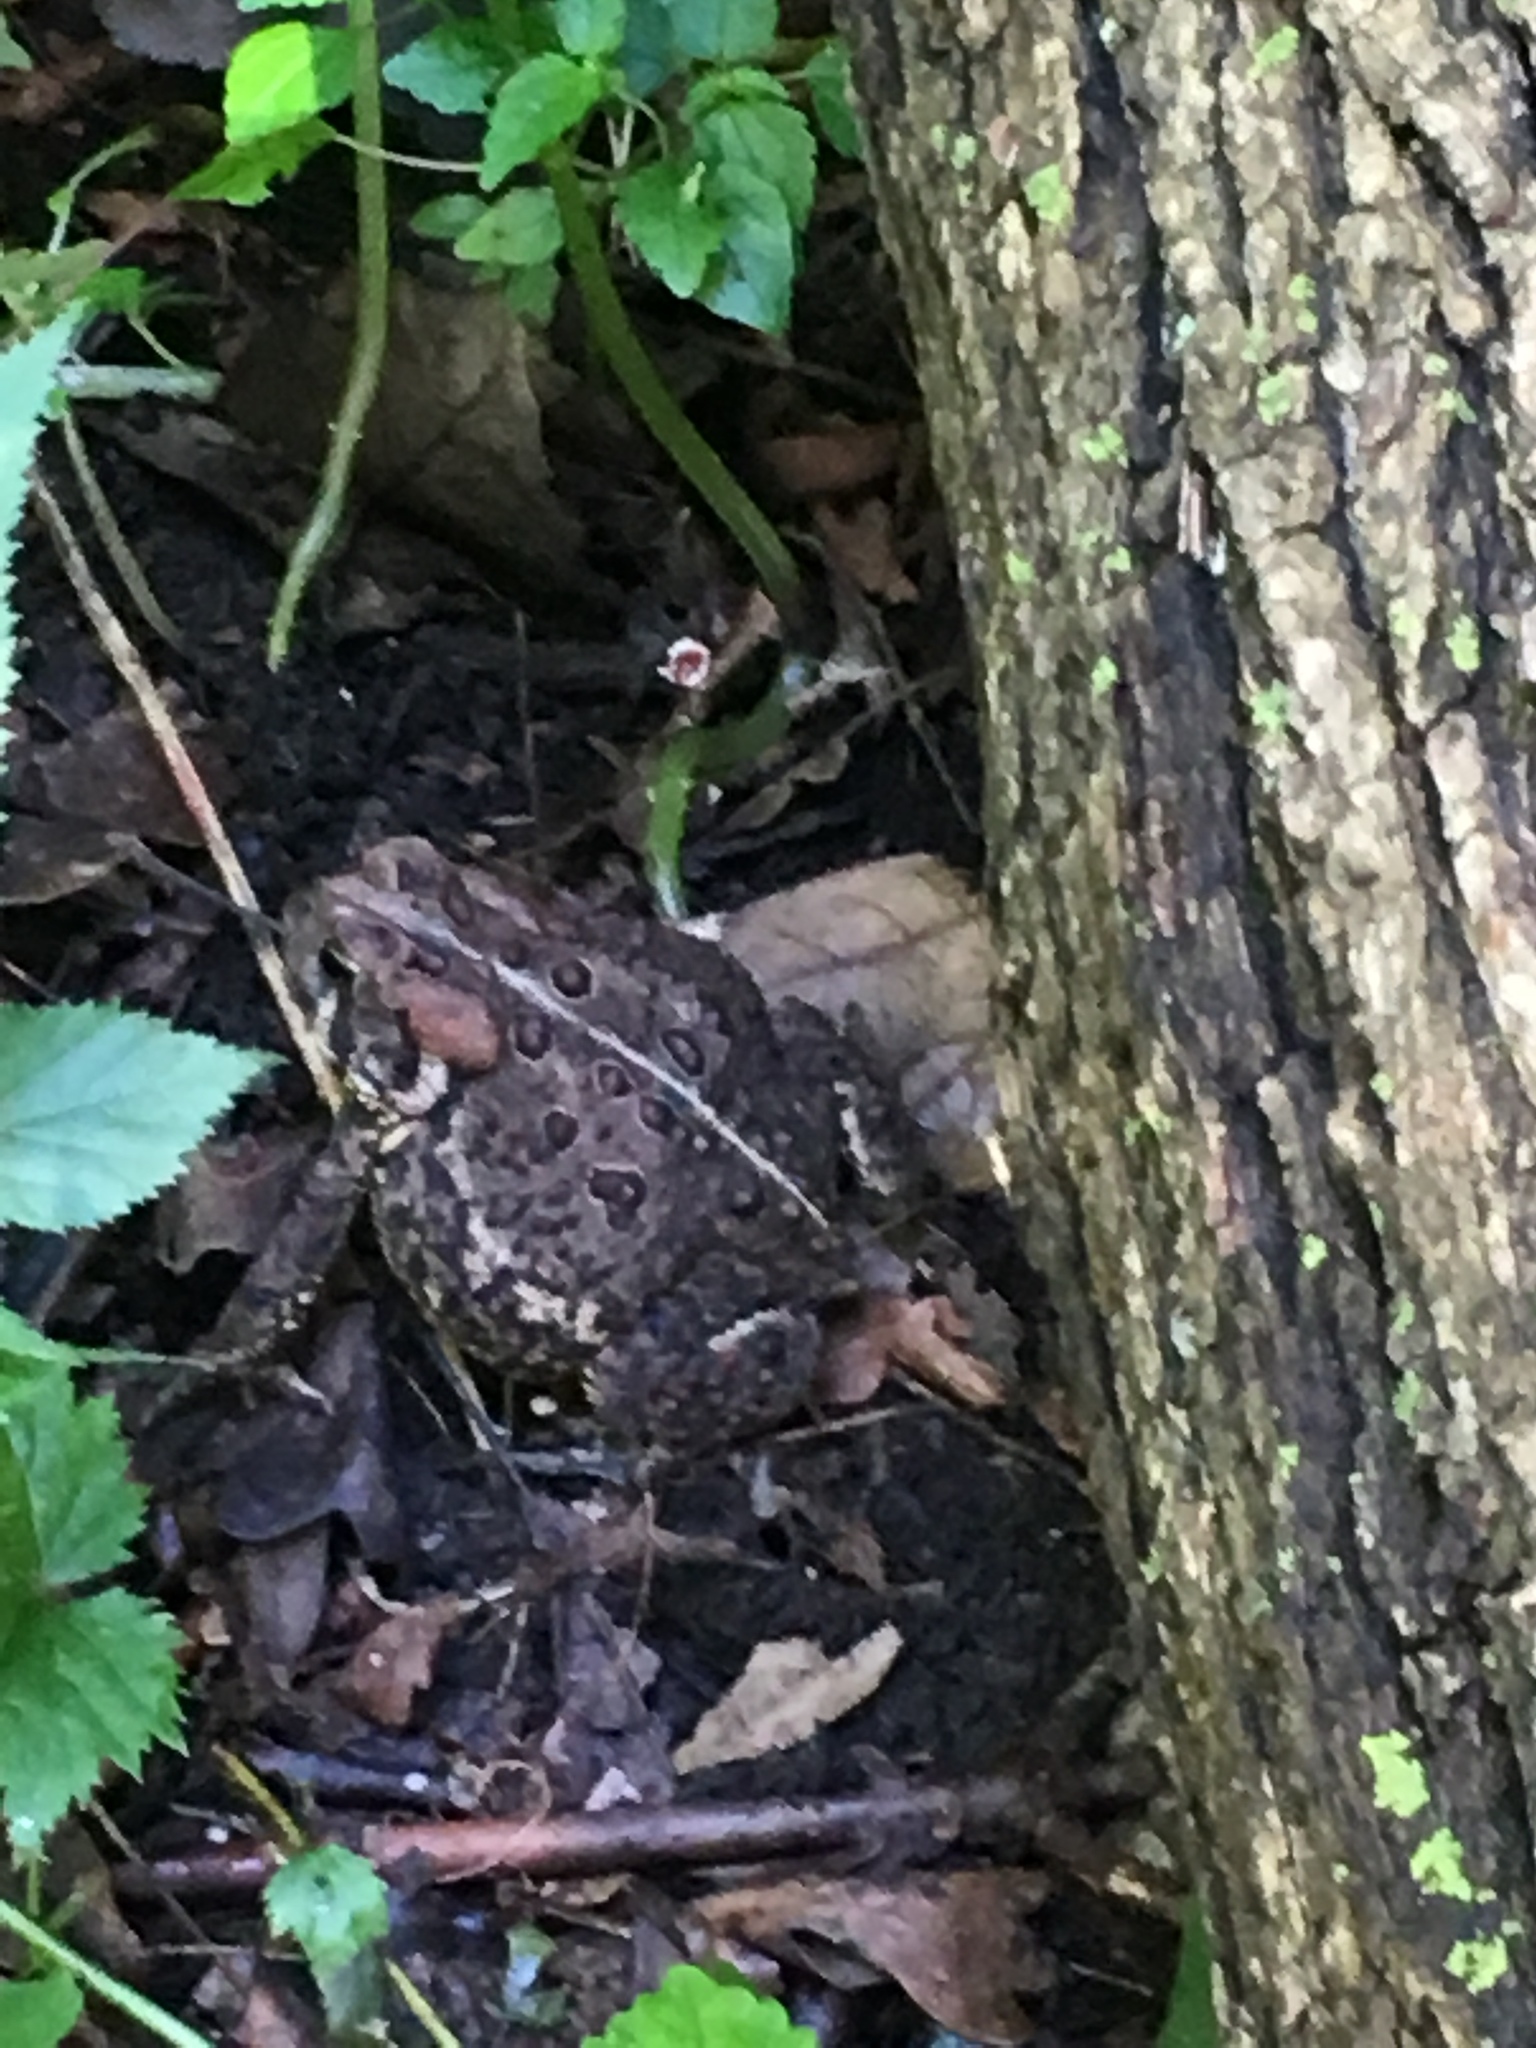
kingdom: Animalia
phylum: Chordata
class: Amphibia
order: Anura
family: Bufonidae
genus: Anaxyrus
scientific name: Anaxyrus americanus
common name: American toad
